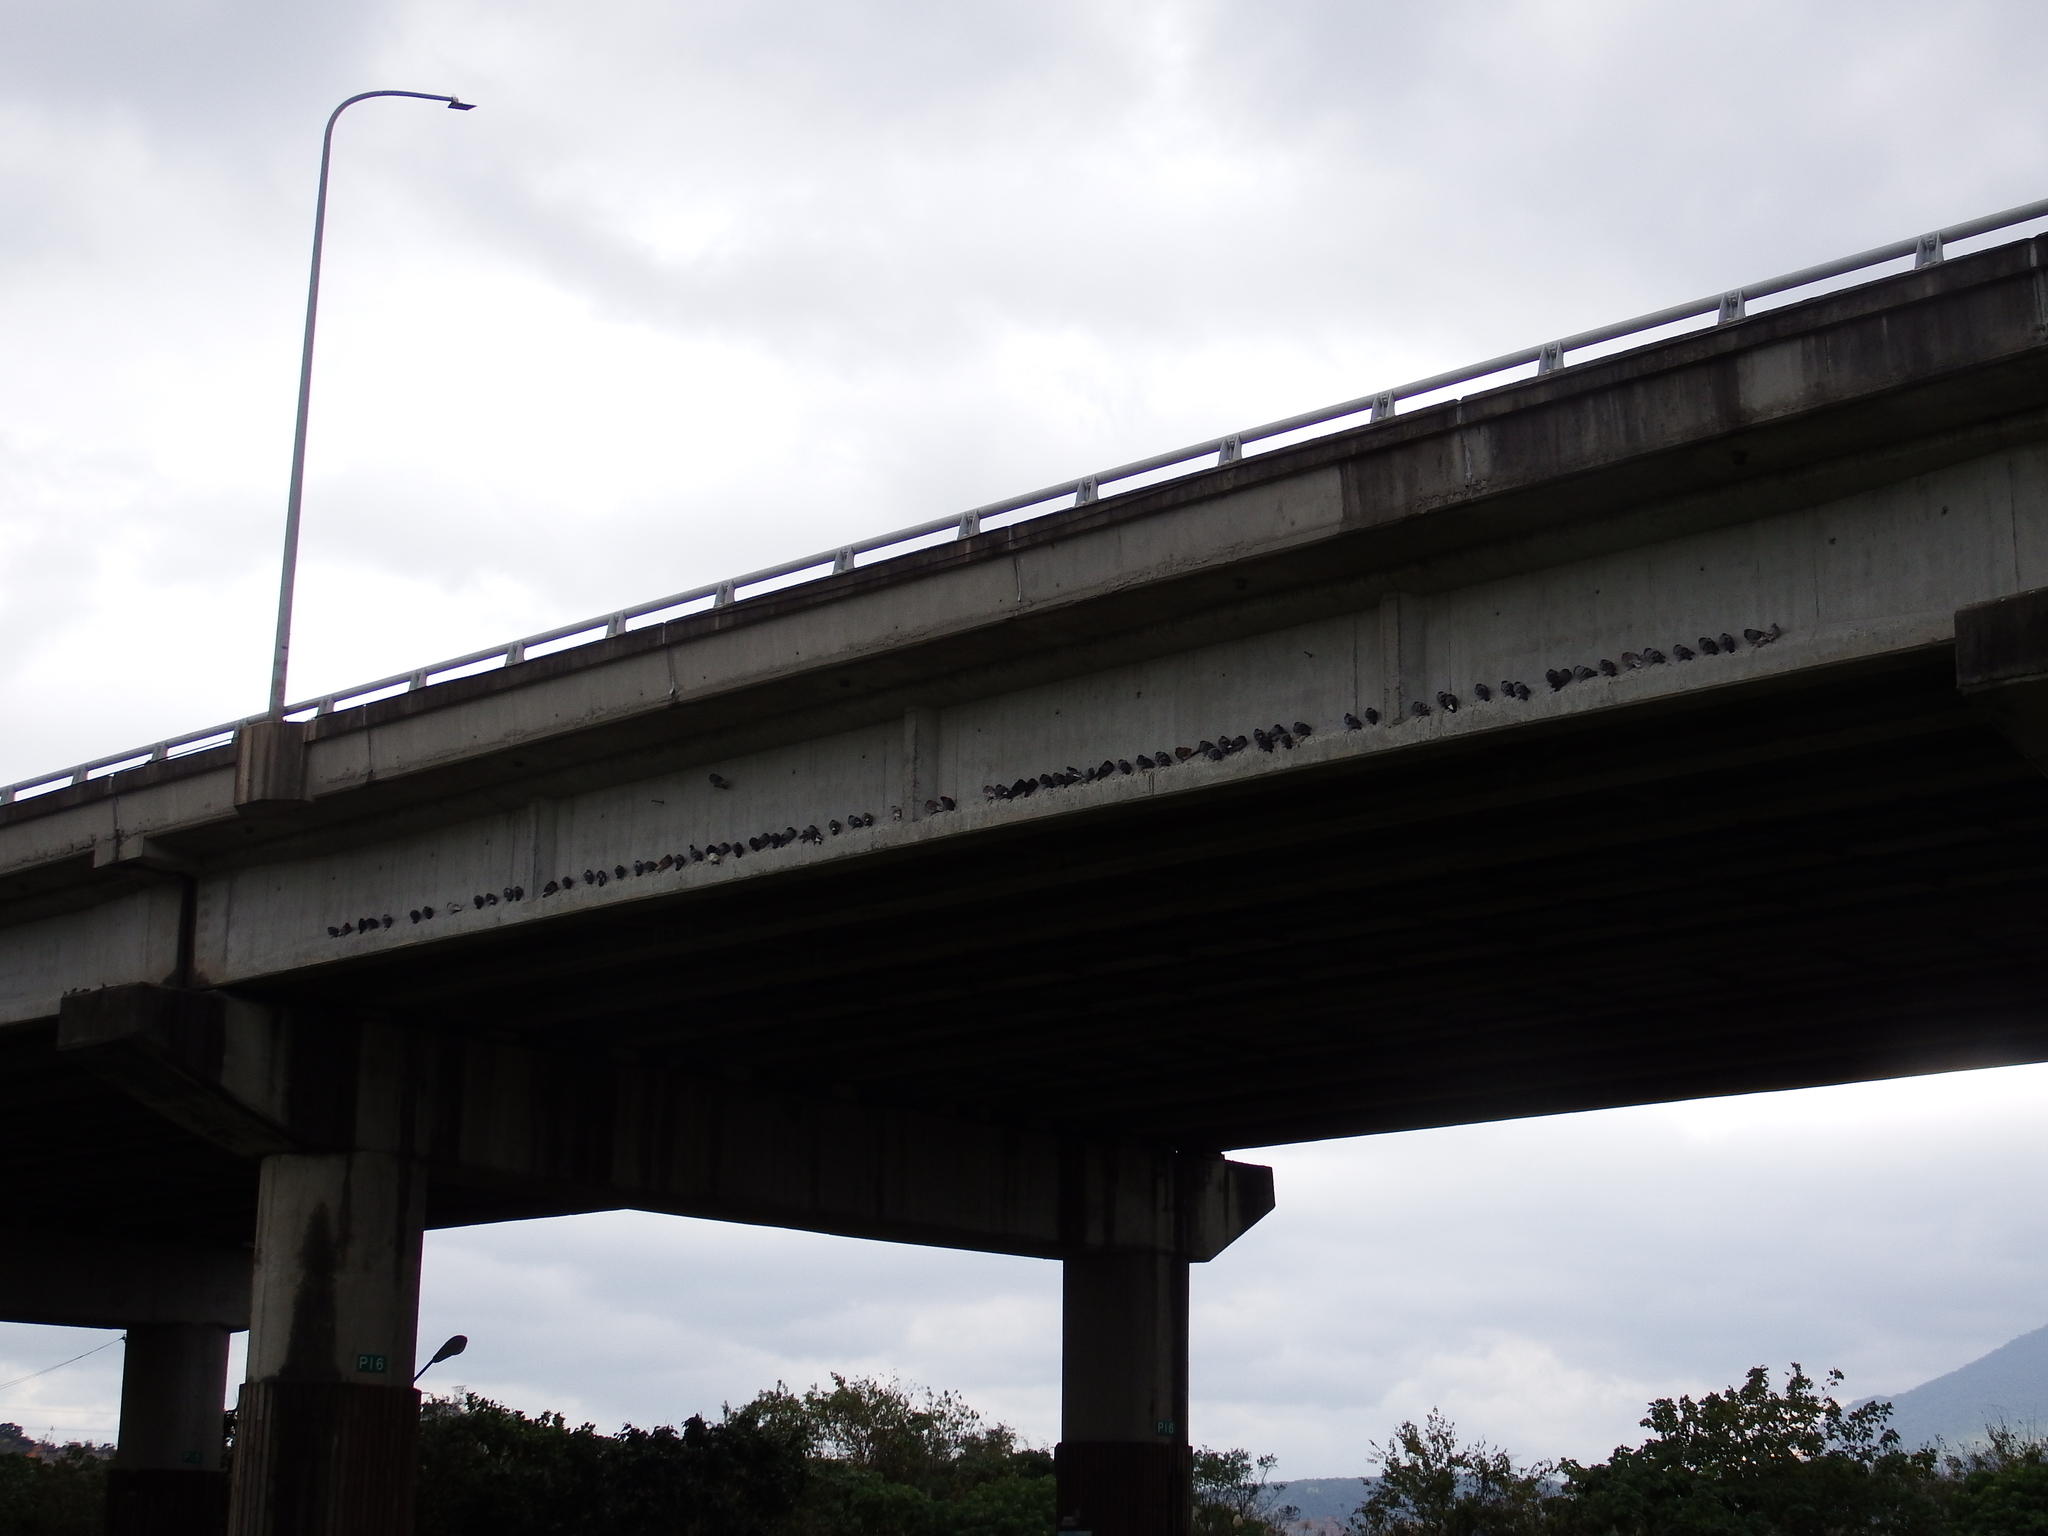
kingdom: Animalia
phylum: Chordata
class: Aves
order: Columbiformes
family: Columbidae
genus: Columba
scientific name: Columba livia
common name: Rock pigeon
